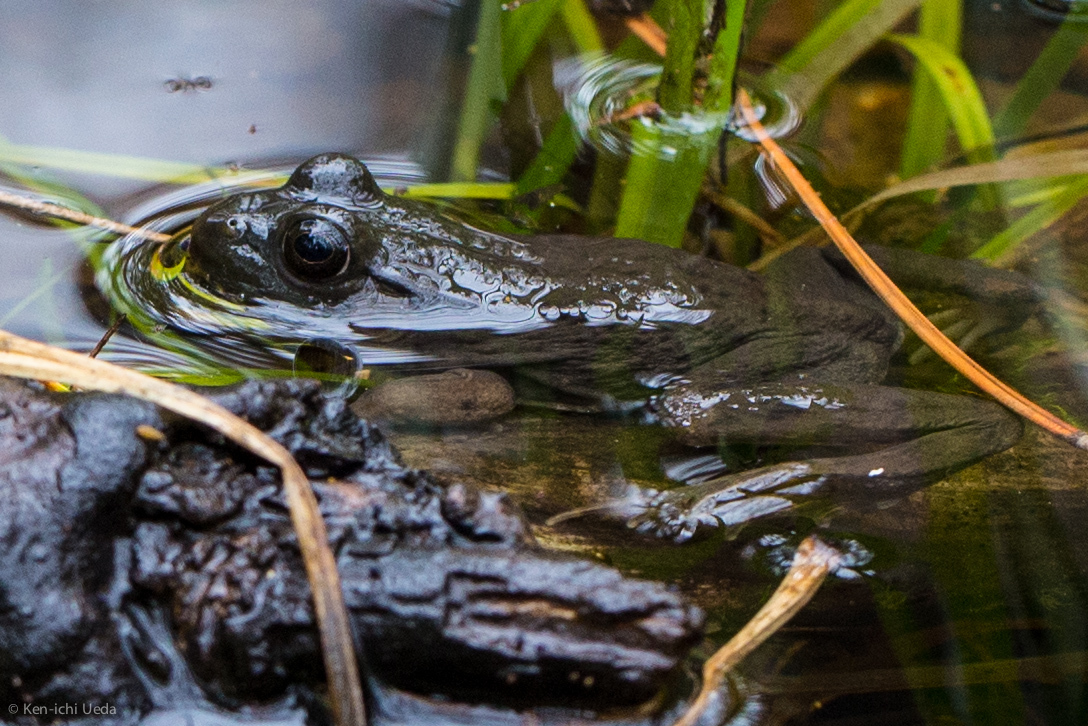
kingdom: Animalia
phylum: Chordata
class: Amphibia
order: Anura
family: Ranidae
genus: Lithobates
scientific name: Lithobates clamitans
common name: Green frog
